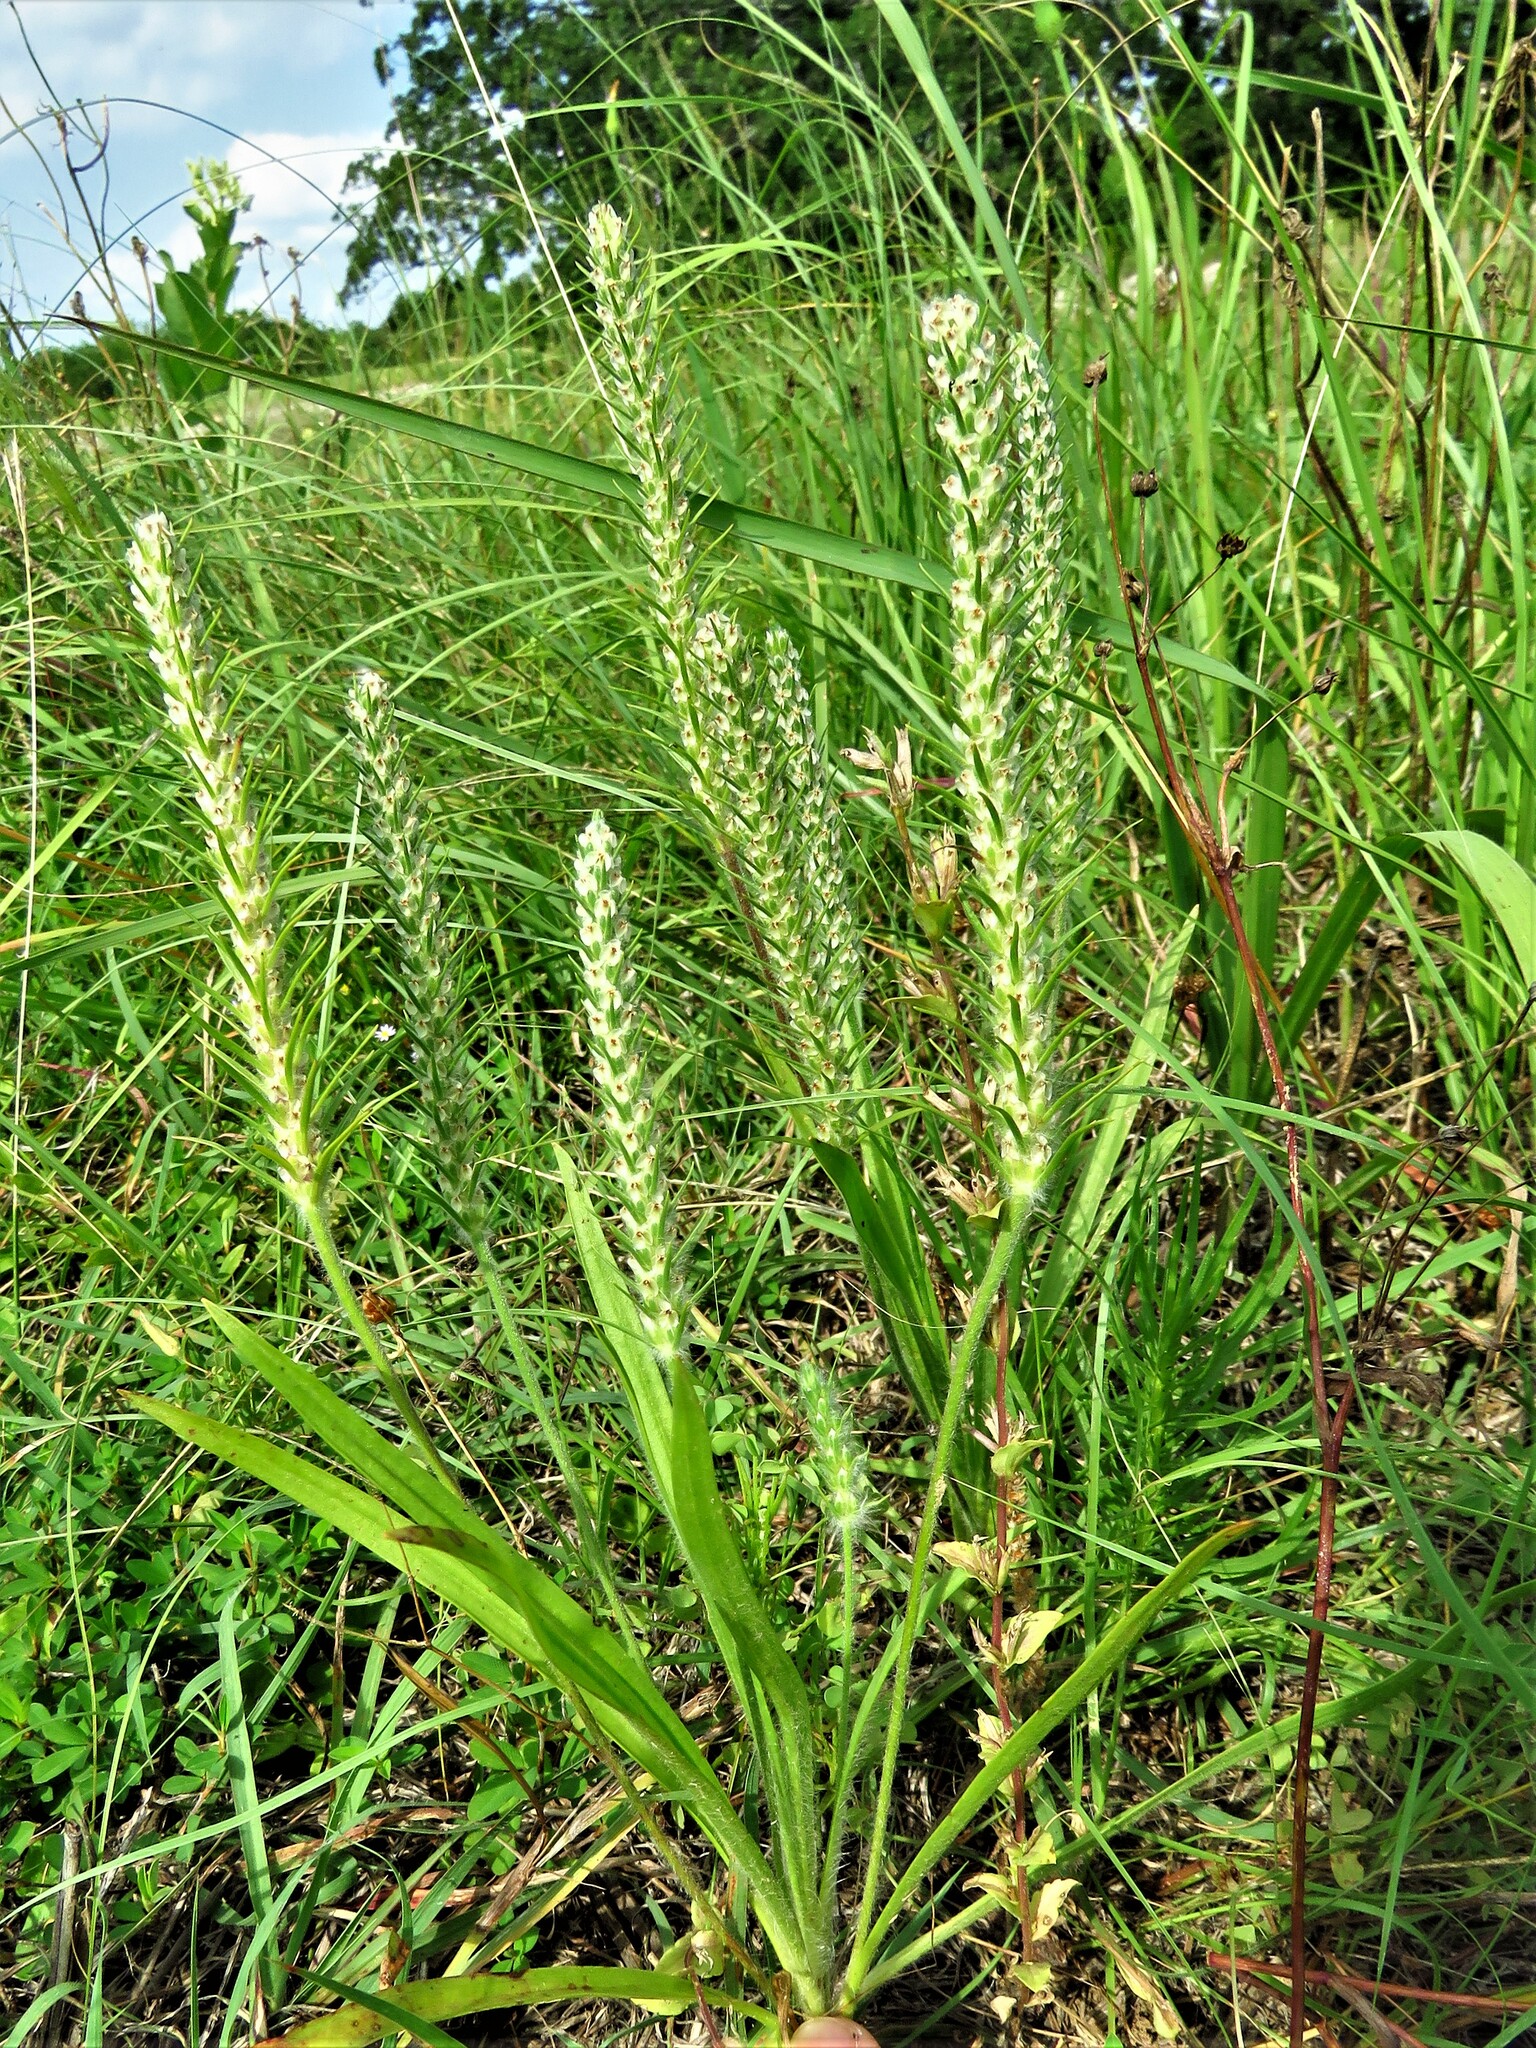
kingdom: Plantae
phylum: Tracheophyta
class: Magnoliopsida
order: Lamiales
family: Plantaginaceae
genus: Plantago
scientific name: Plantago aristata
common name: Bracted plantain
